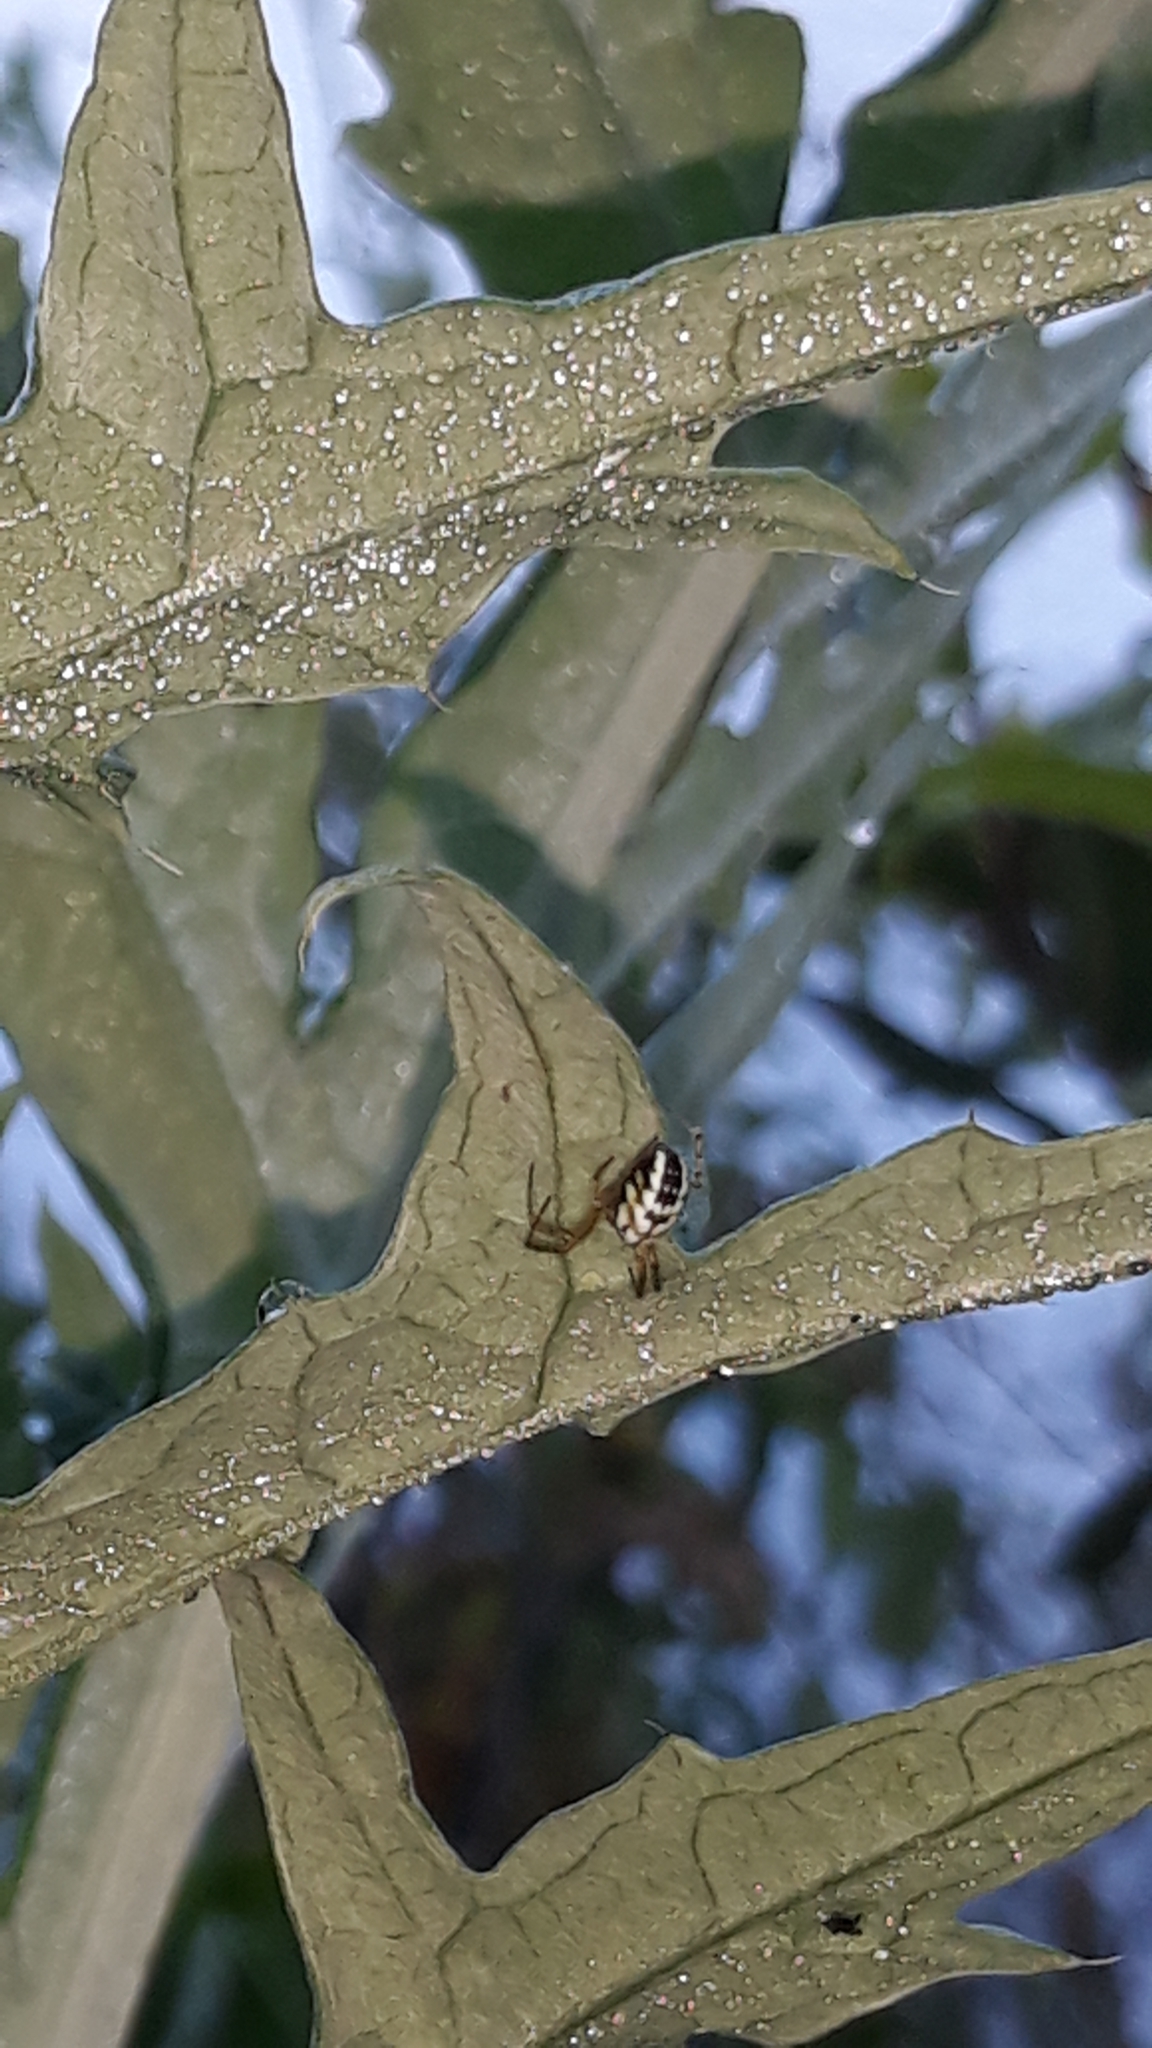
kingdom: Animalia
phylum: Arthropoda
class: Arachnida
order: Araneae
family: Araneidae
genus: Mangora
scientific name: Mangora acalypha
